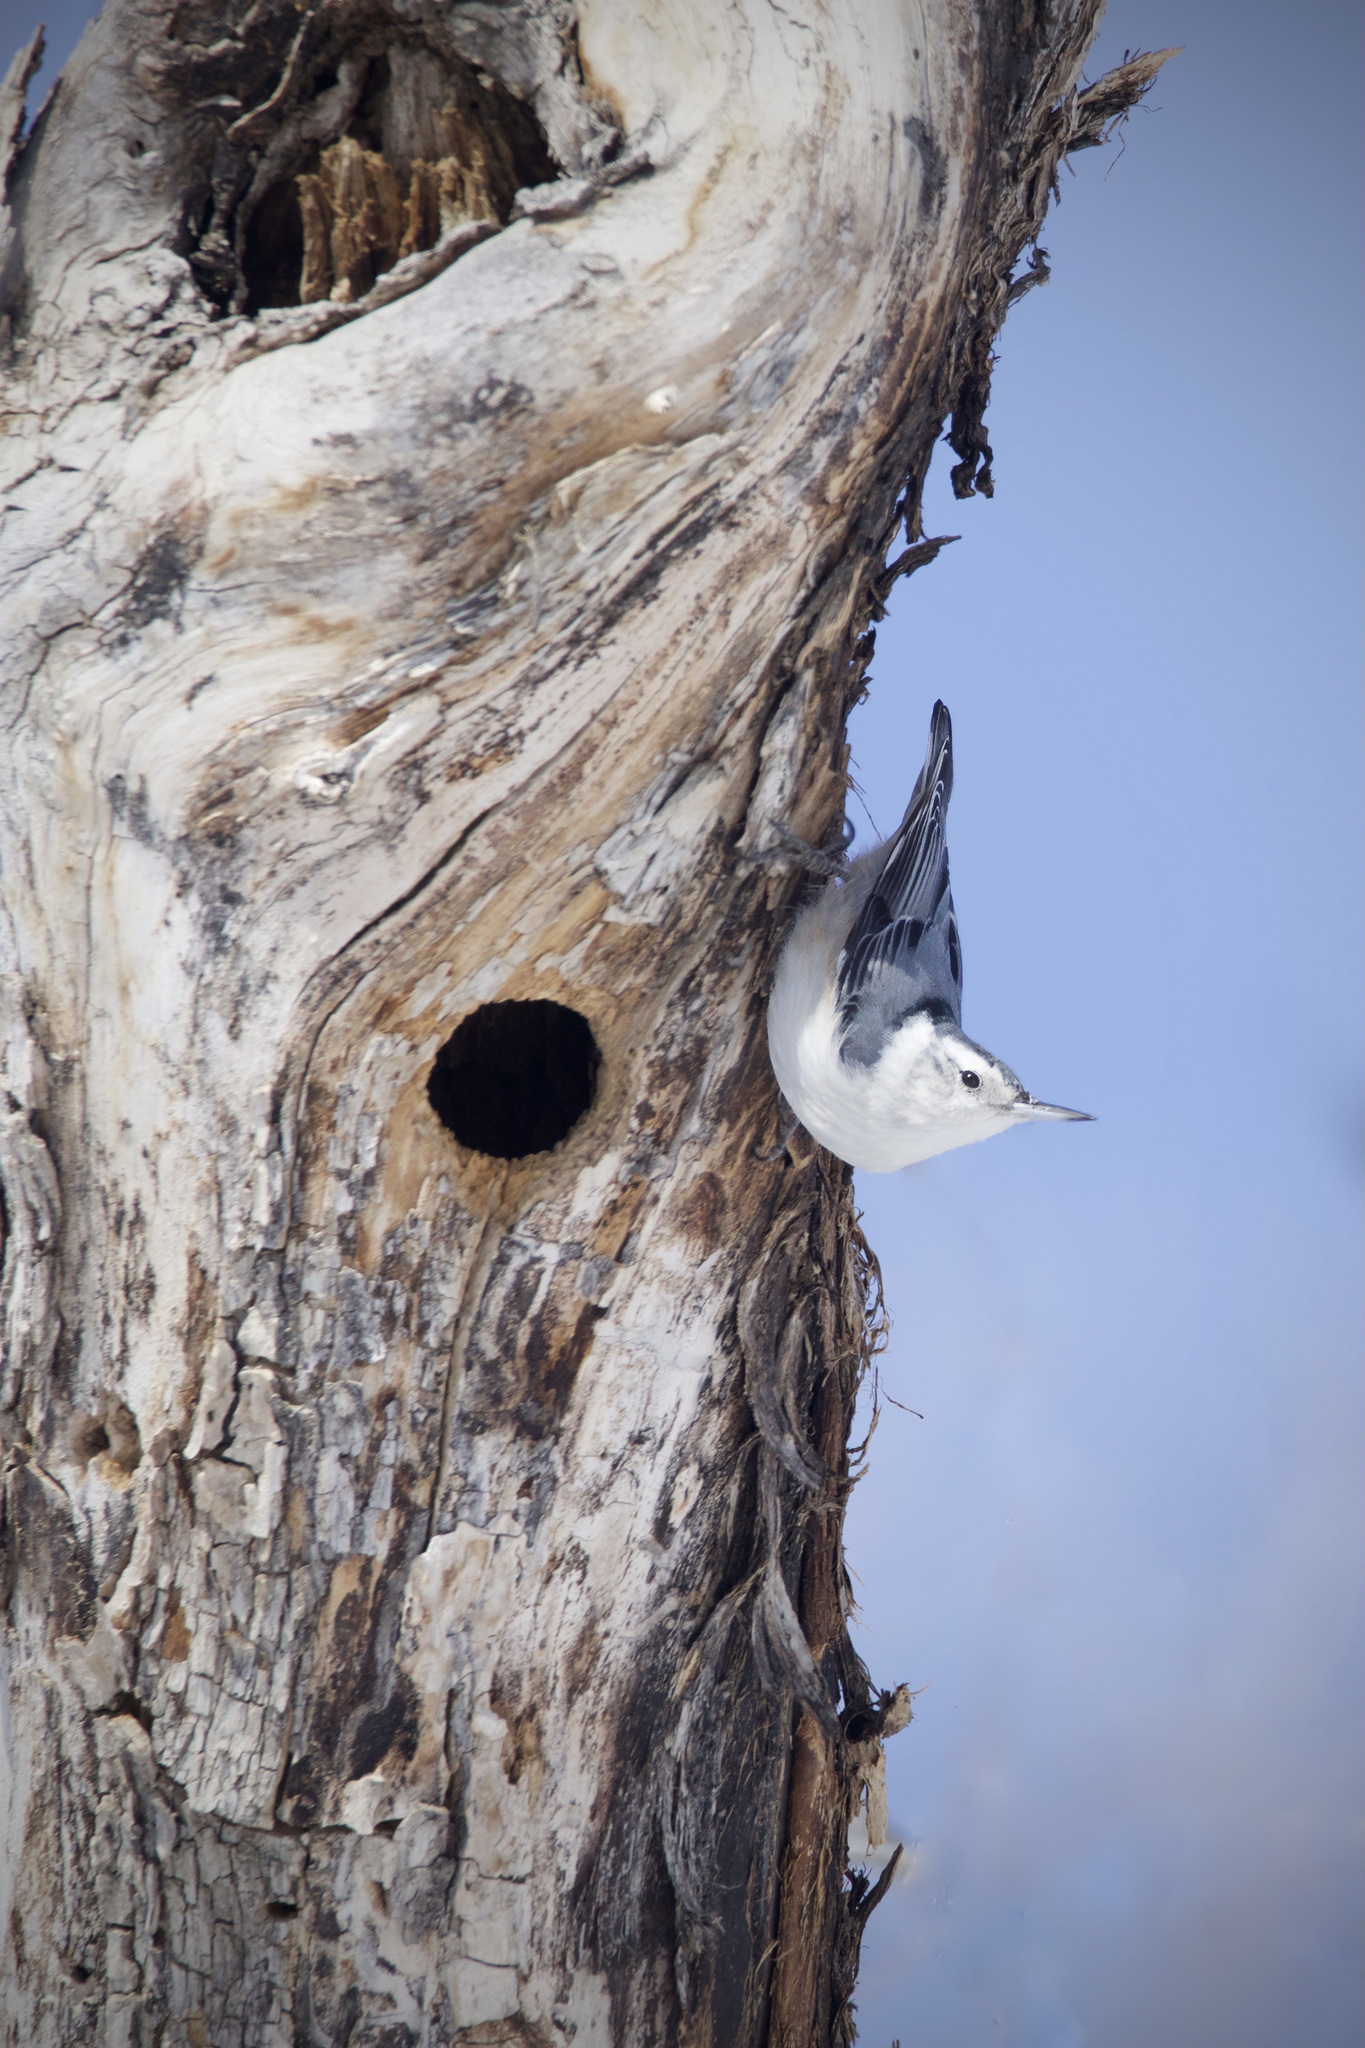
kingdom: Animalia
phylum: Chordata
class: Aves
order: Passeriformes
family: Sittidae
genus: Sitta
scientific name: Sitta carolinensis
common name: White-breasted nuthatch
